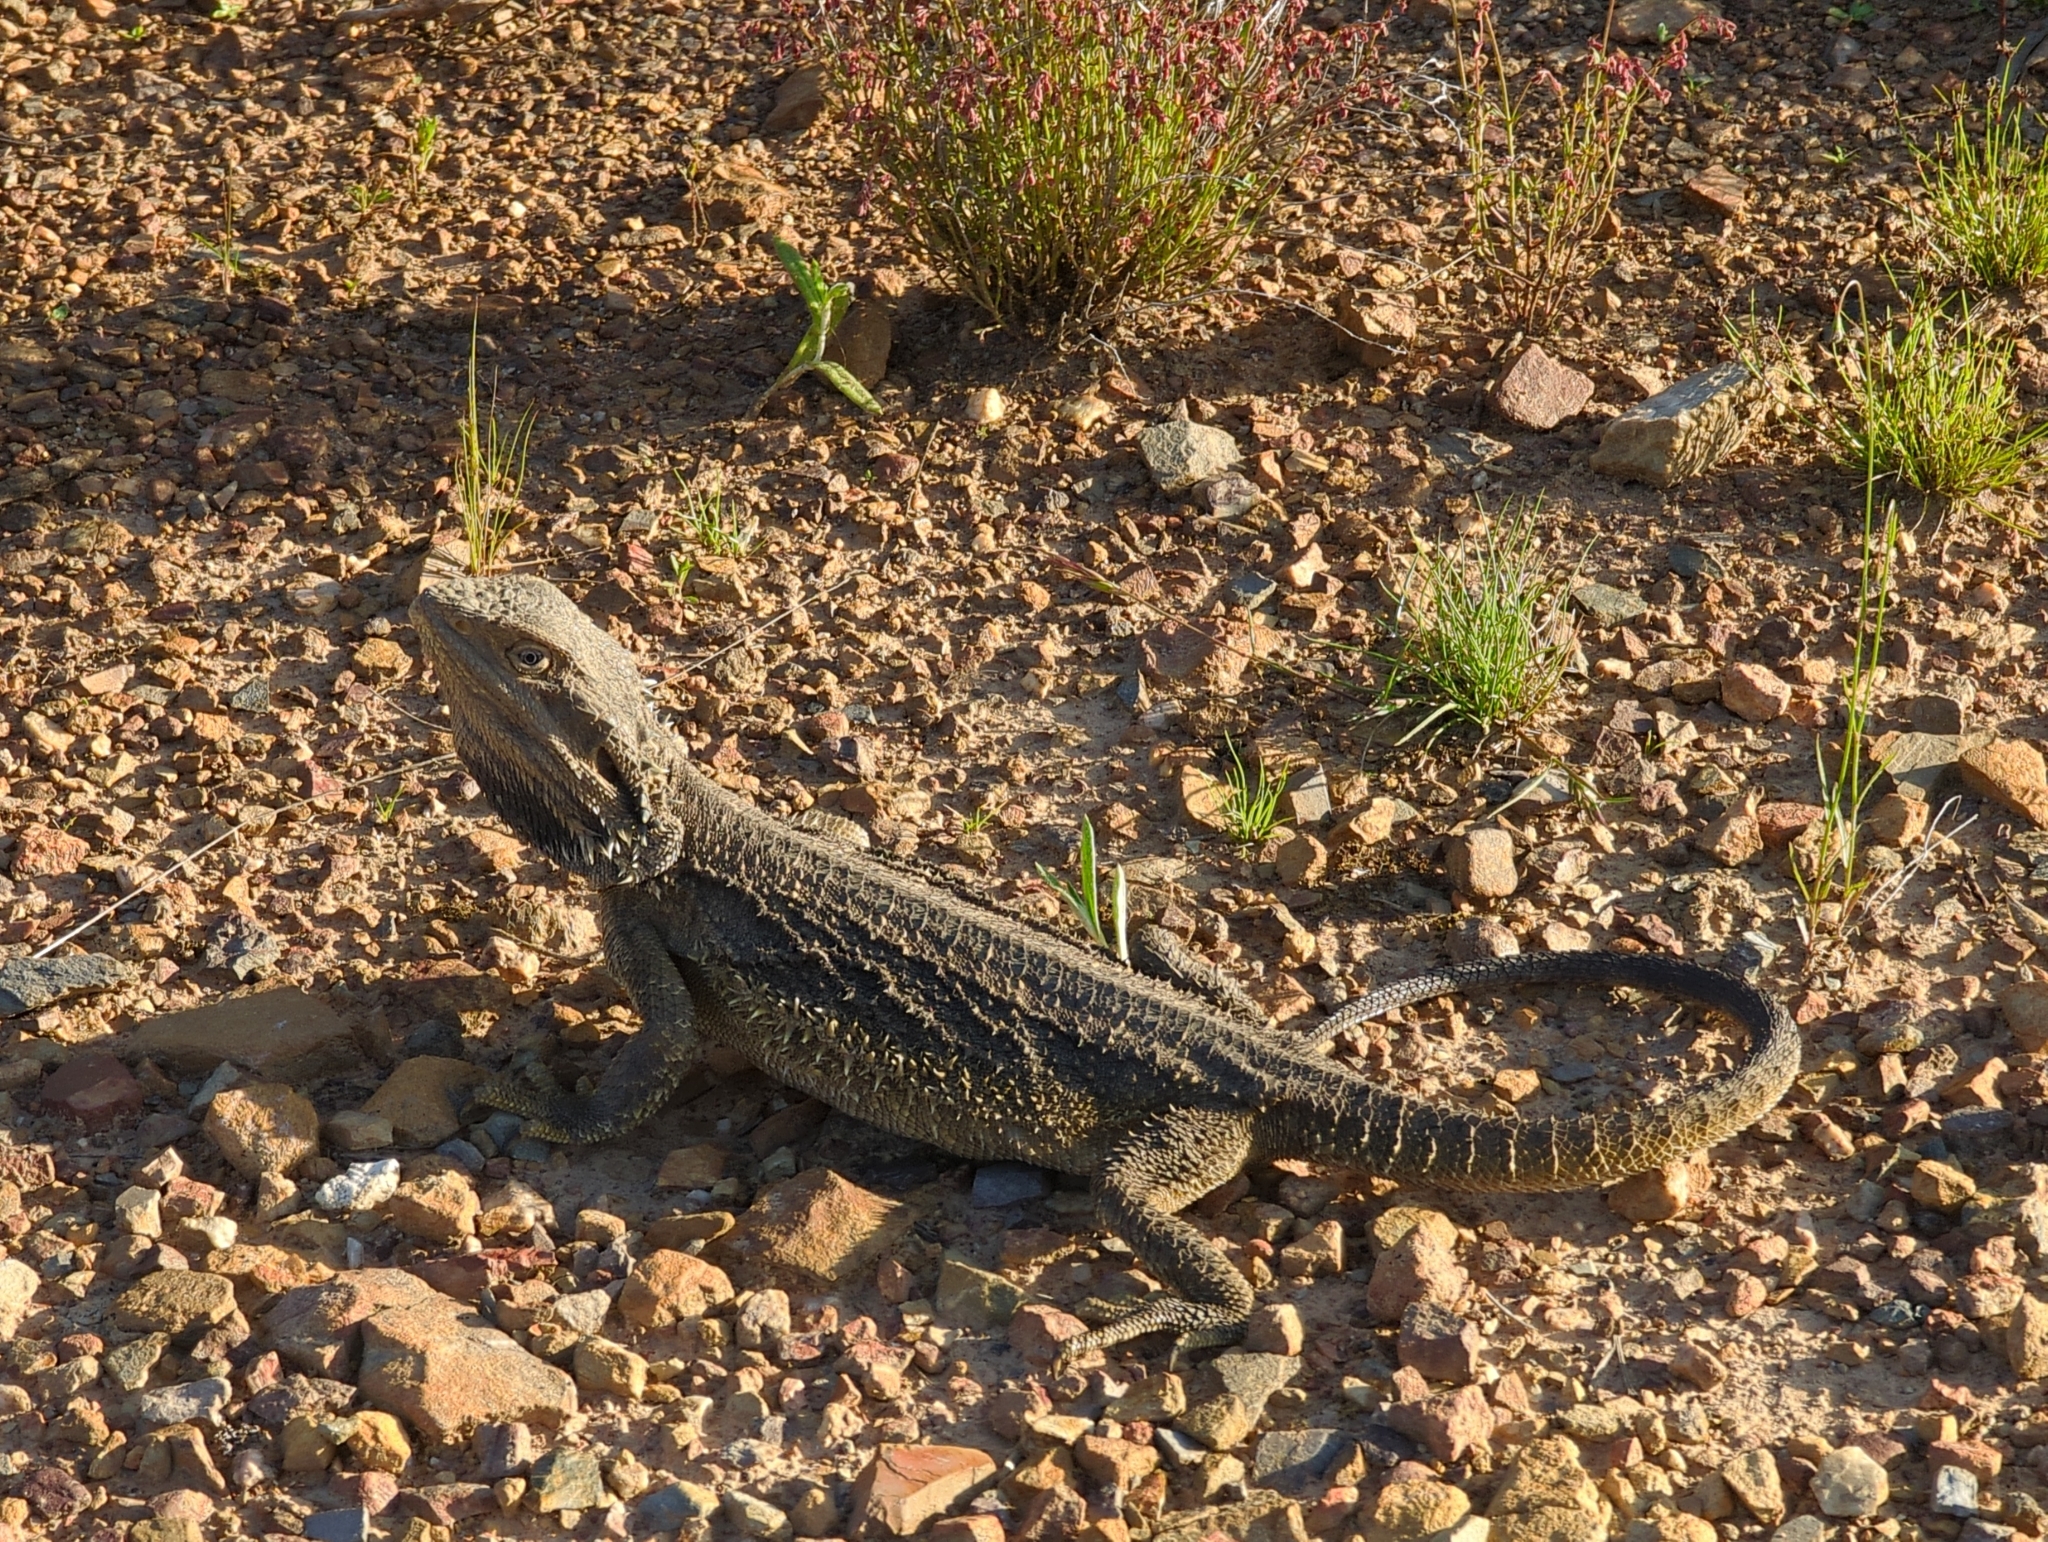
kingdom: Animalia
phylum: Chordata
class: Squamata
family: Agamidae
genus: Pogona
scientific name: Pogona barbata
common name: Bearded dragon
